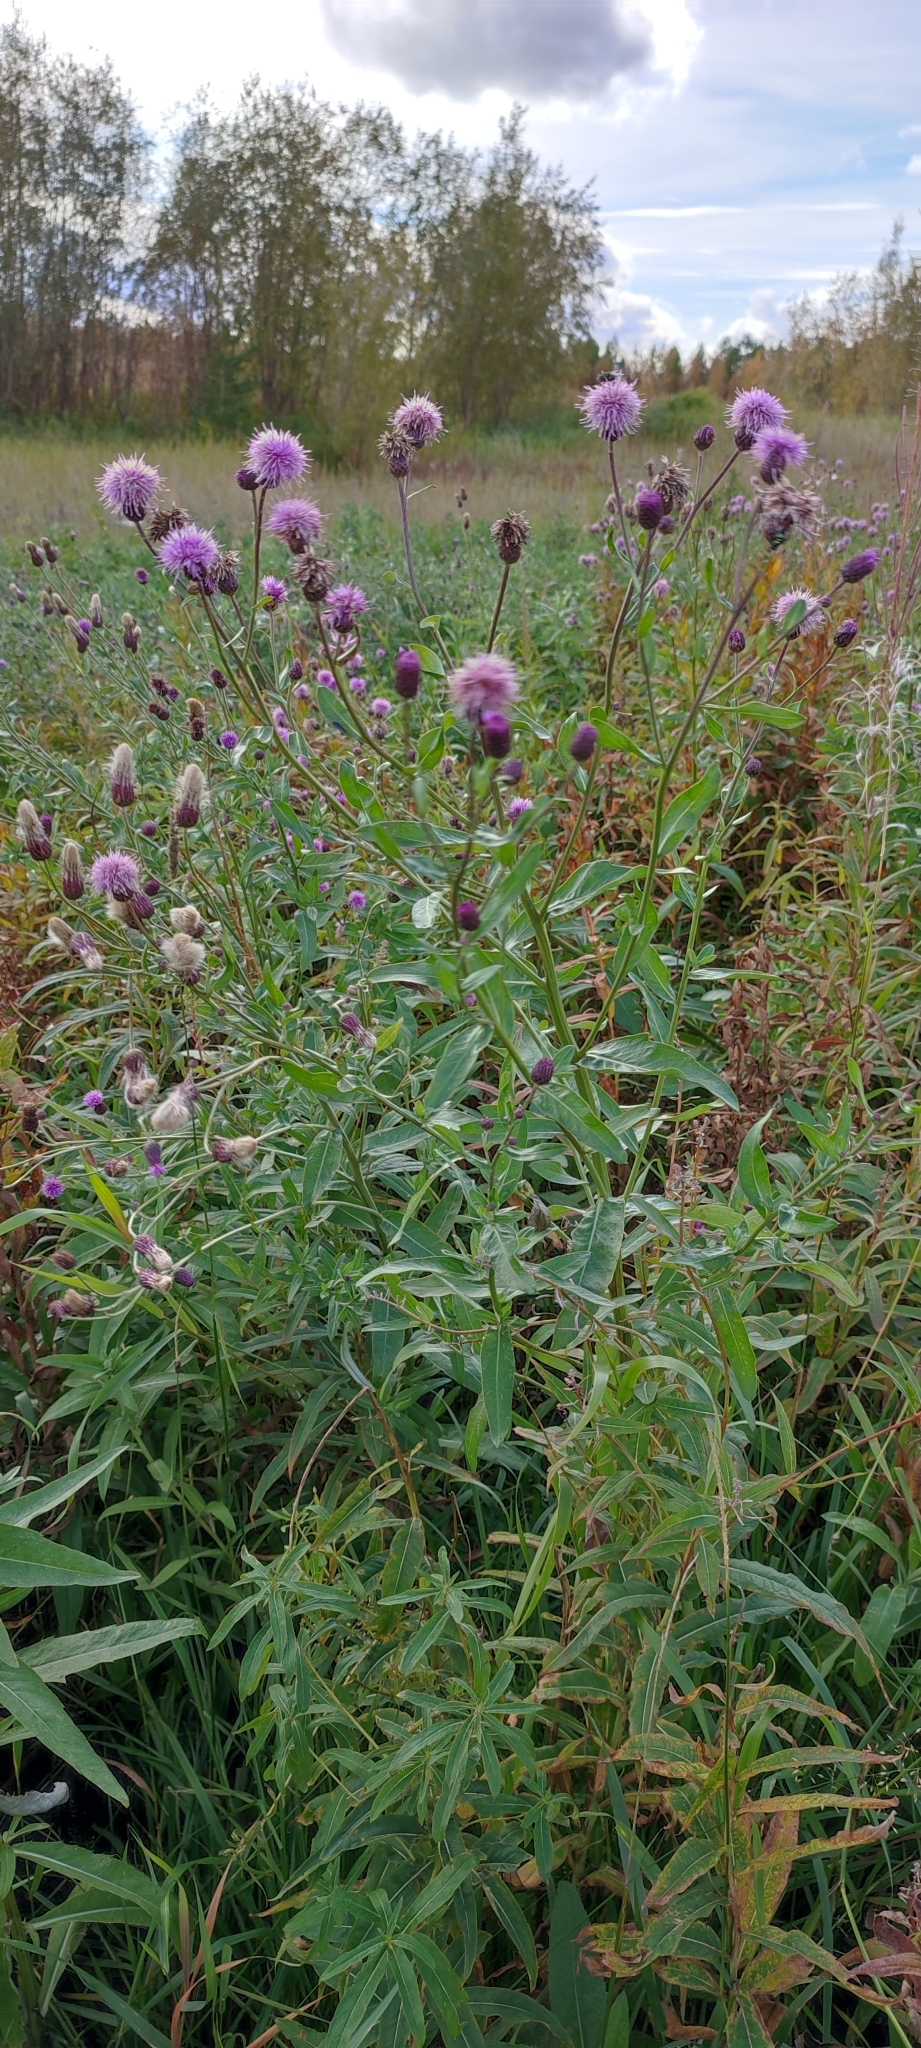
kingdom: Plantae
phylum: Tracheophyta
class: Magnoliopsida
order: Asterales
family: Asteraceae
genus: Cirsium
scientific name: Cirsium arvense
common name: Creeping thistle
